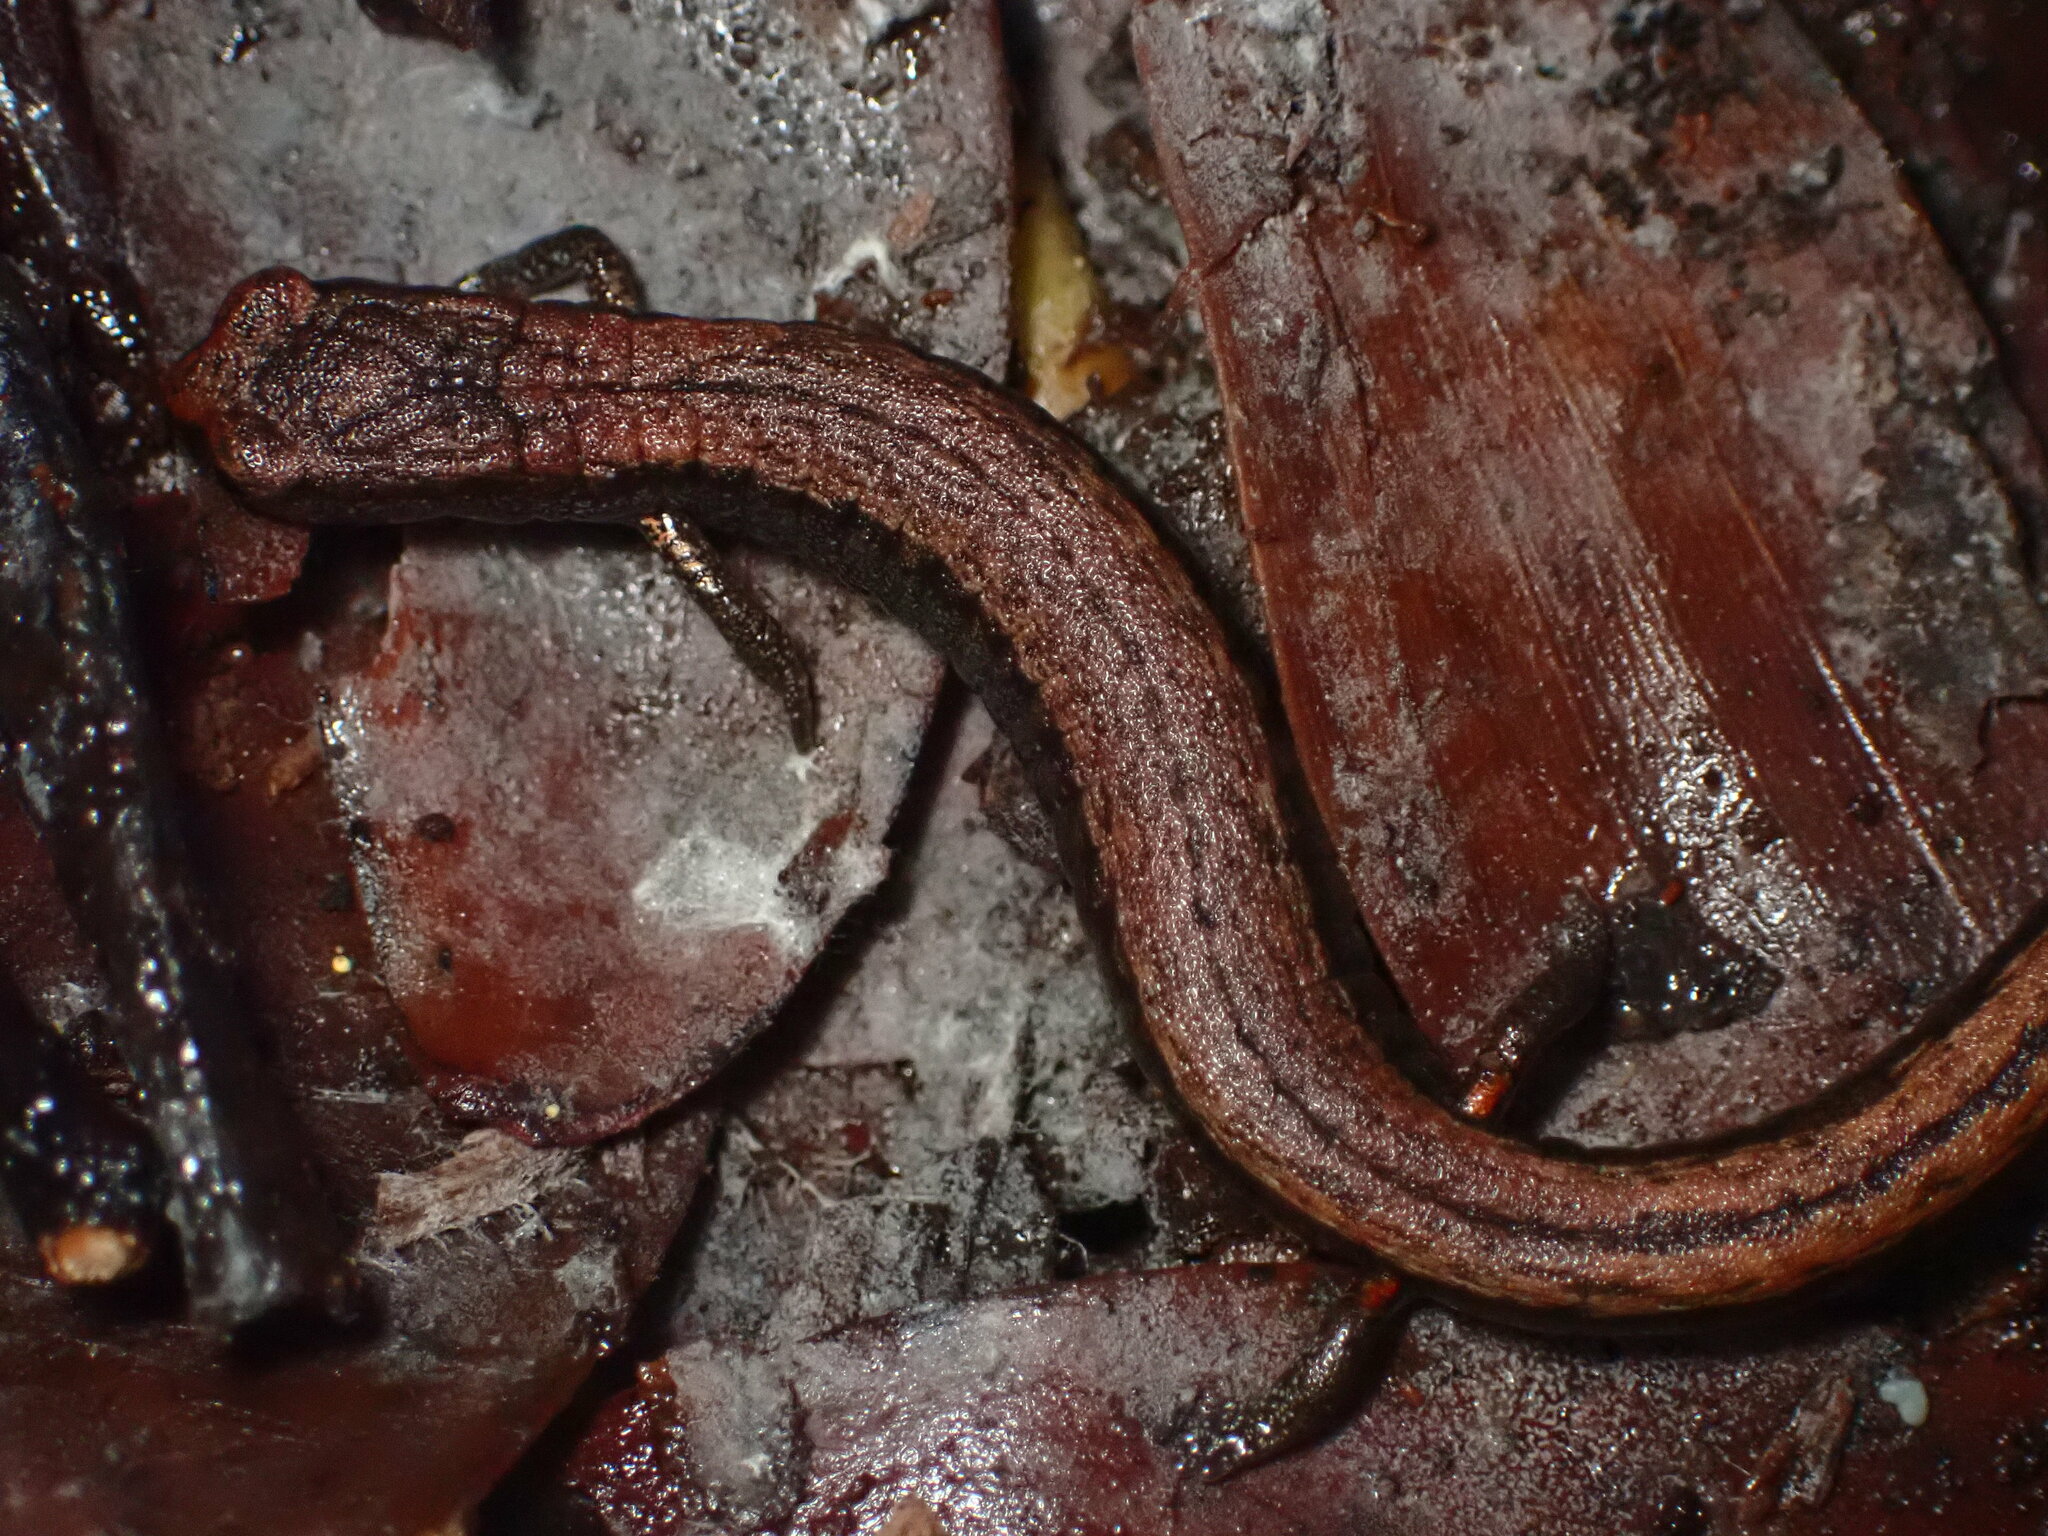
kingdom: Animalia
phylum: Chordata
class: Amphibia
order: Caudata
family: Plethodontidae
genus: Batrachoseps
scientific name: Batrachoseps attenuatus
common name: California slender salamander
